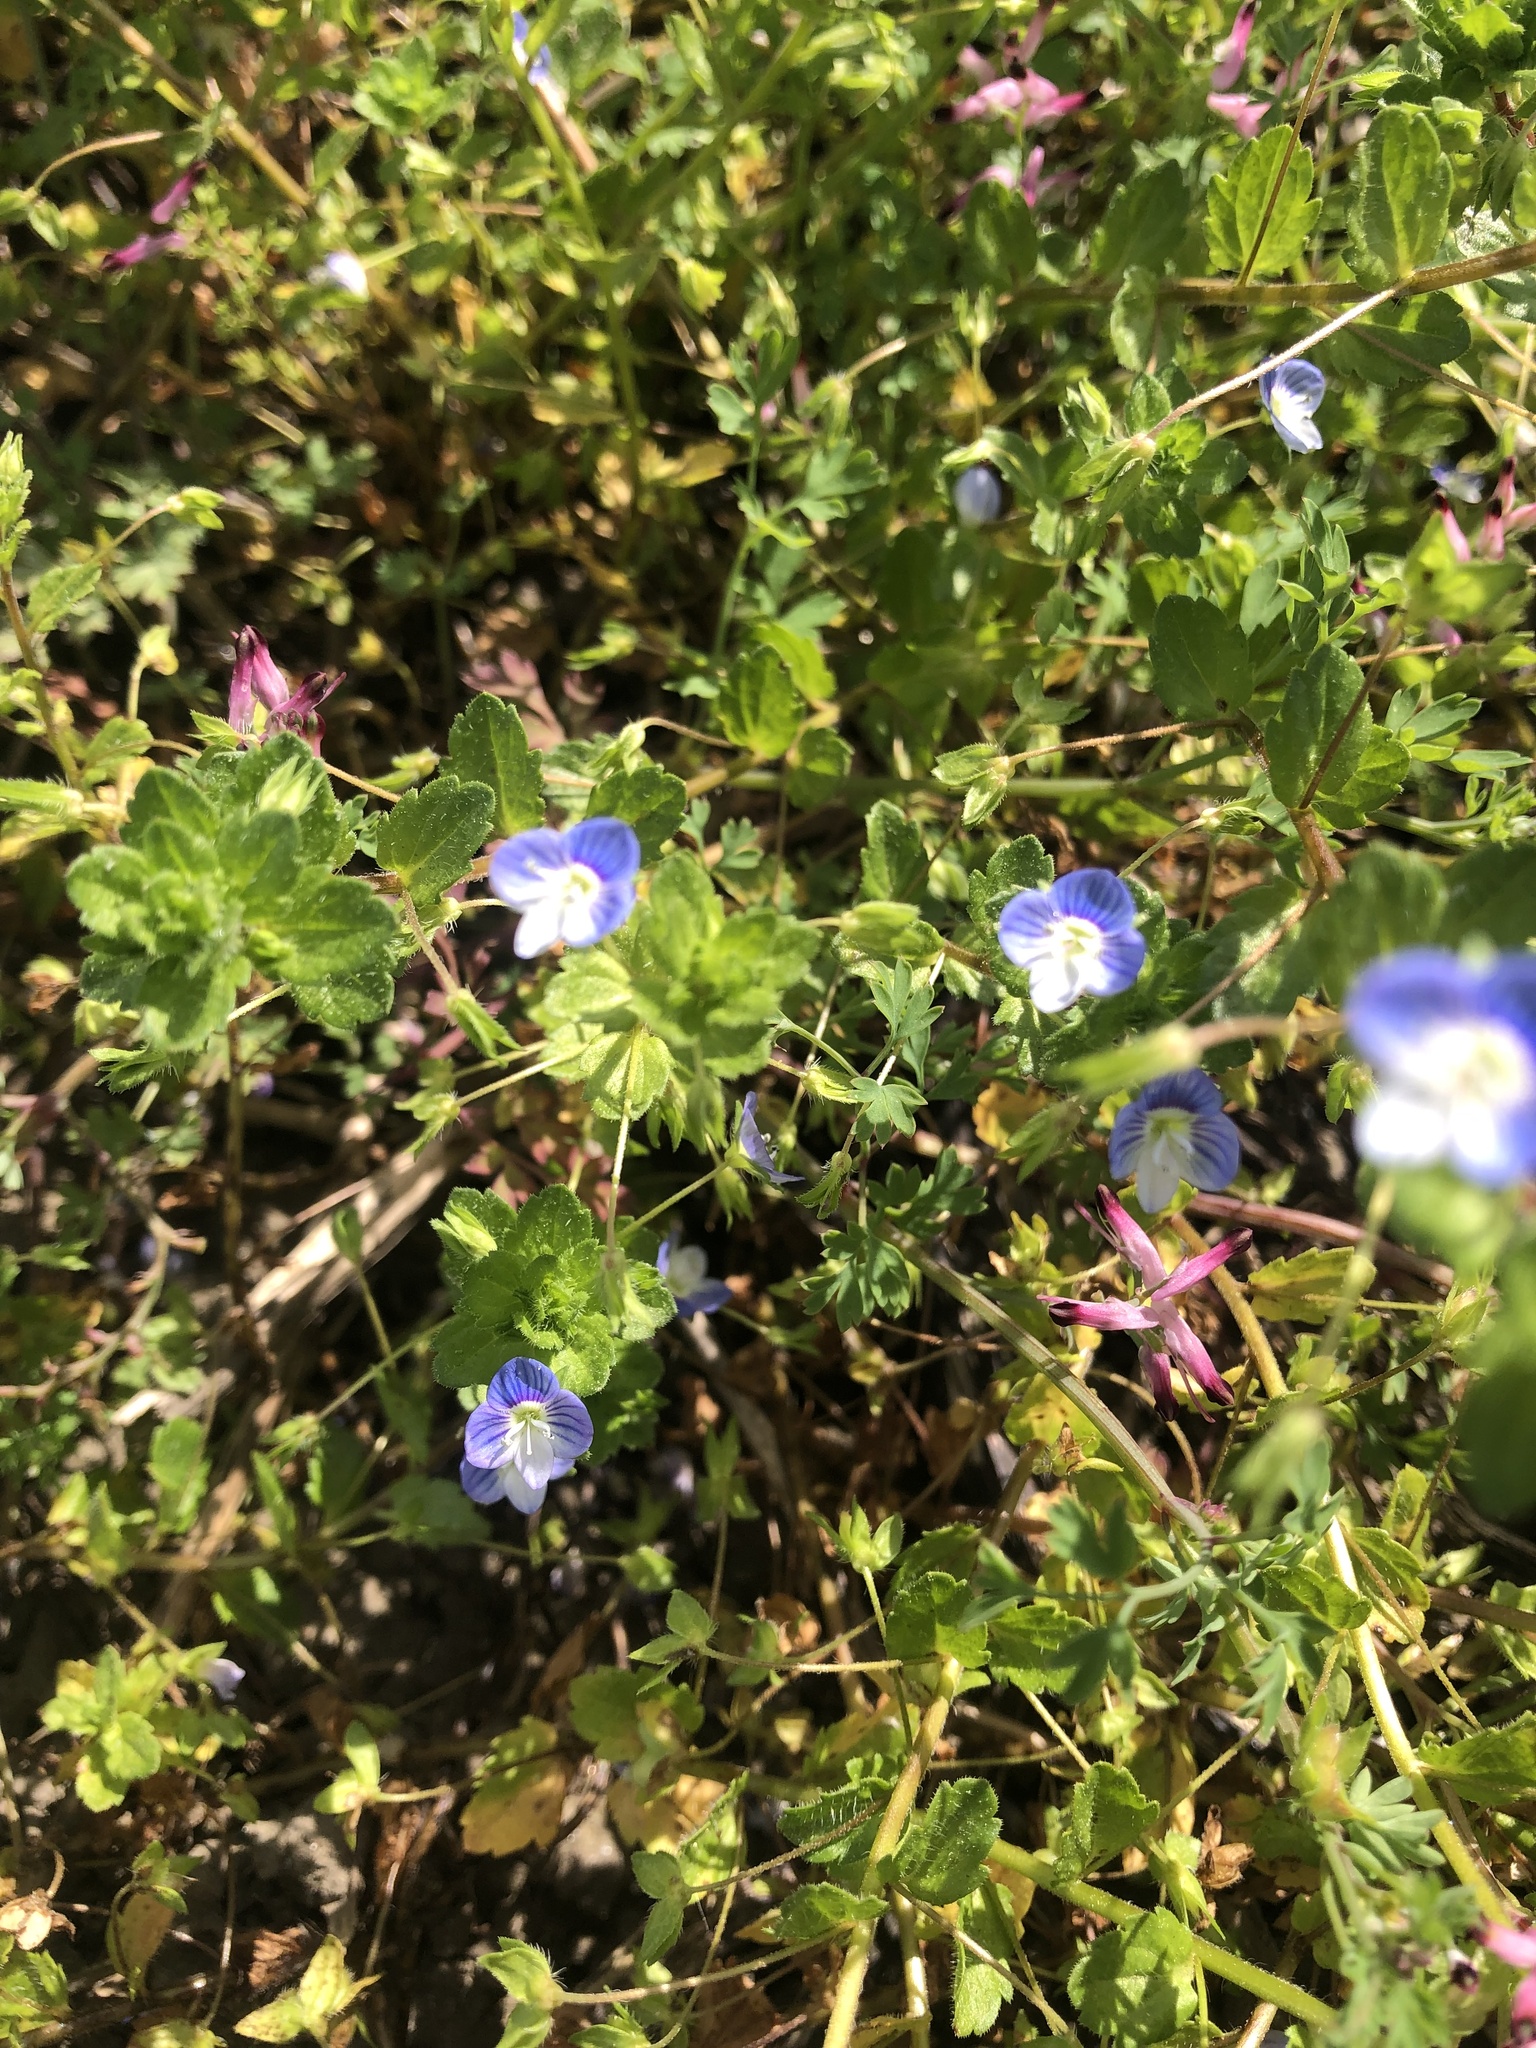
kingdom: Plantae
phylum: Tracheophyta
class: Magnoliopsida
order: Lamiales
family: Plantaginaceae
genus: Veronica
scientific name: Veronica persica
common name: Common field-speedwell
